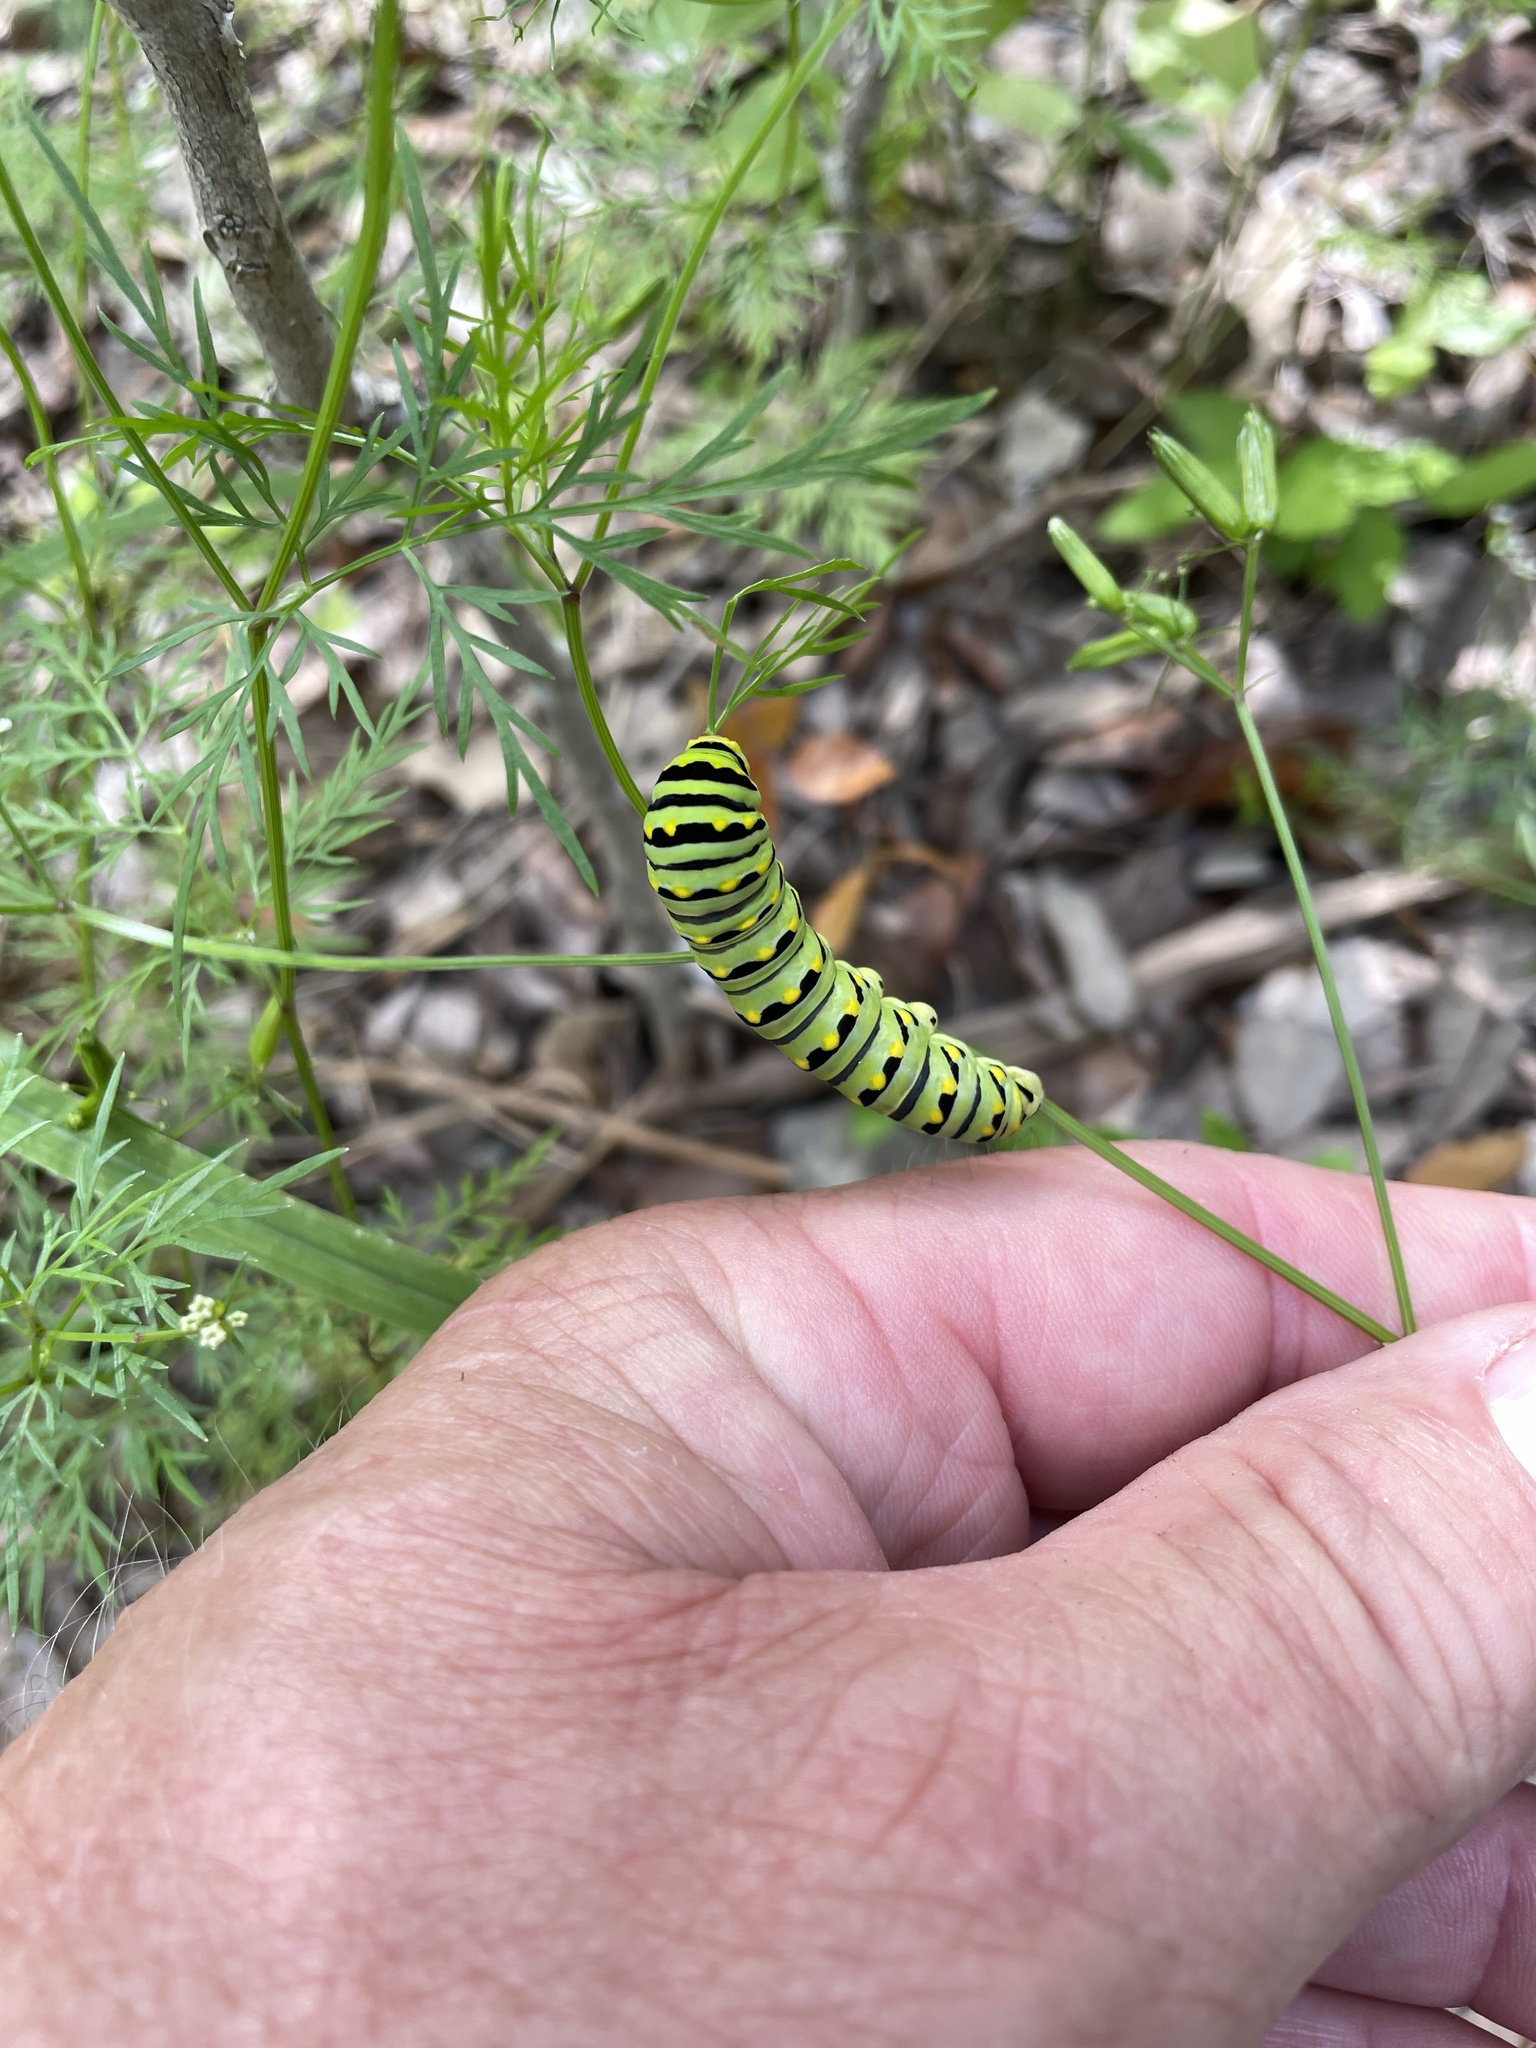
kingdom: Animalia
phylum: Arthropoda
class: Insecta
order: Lepidoptera
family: Papilionidae
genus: Papilio
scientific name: Papilio polyxenes
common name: Black swallowtail
